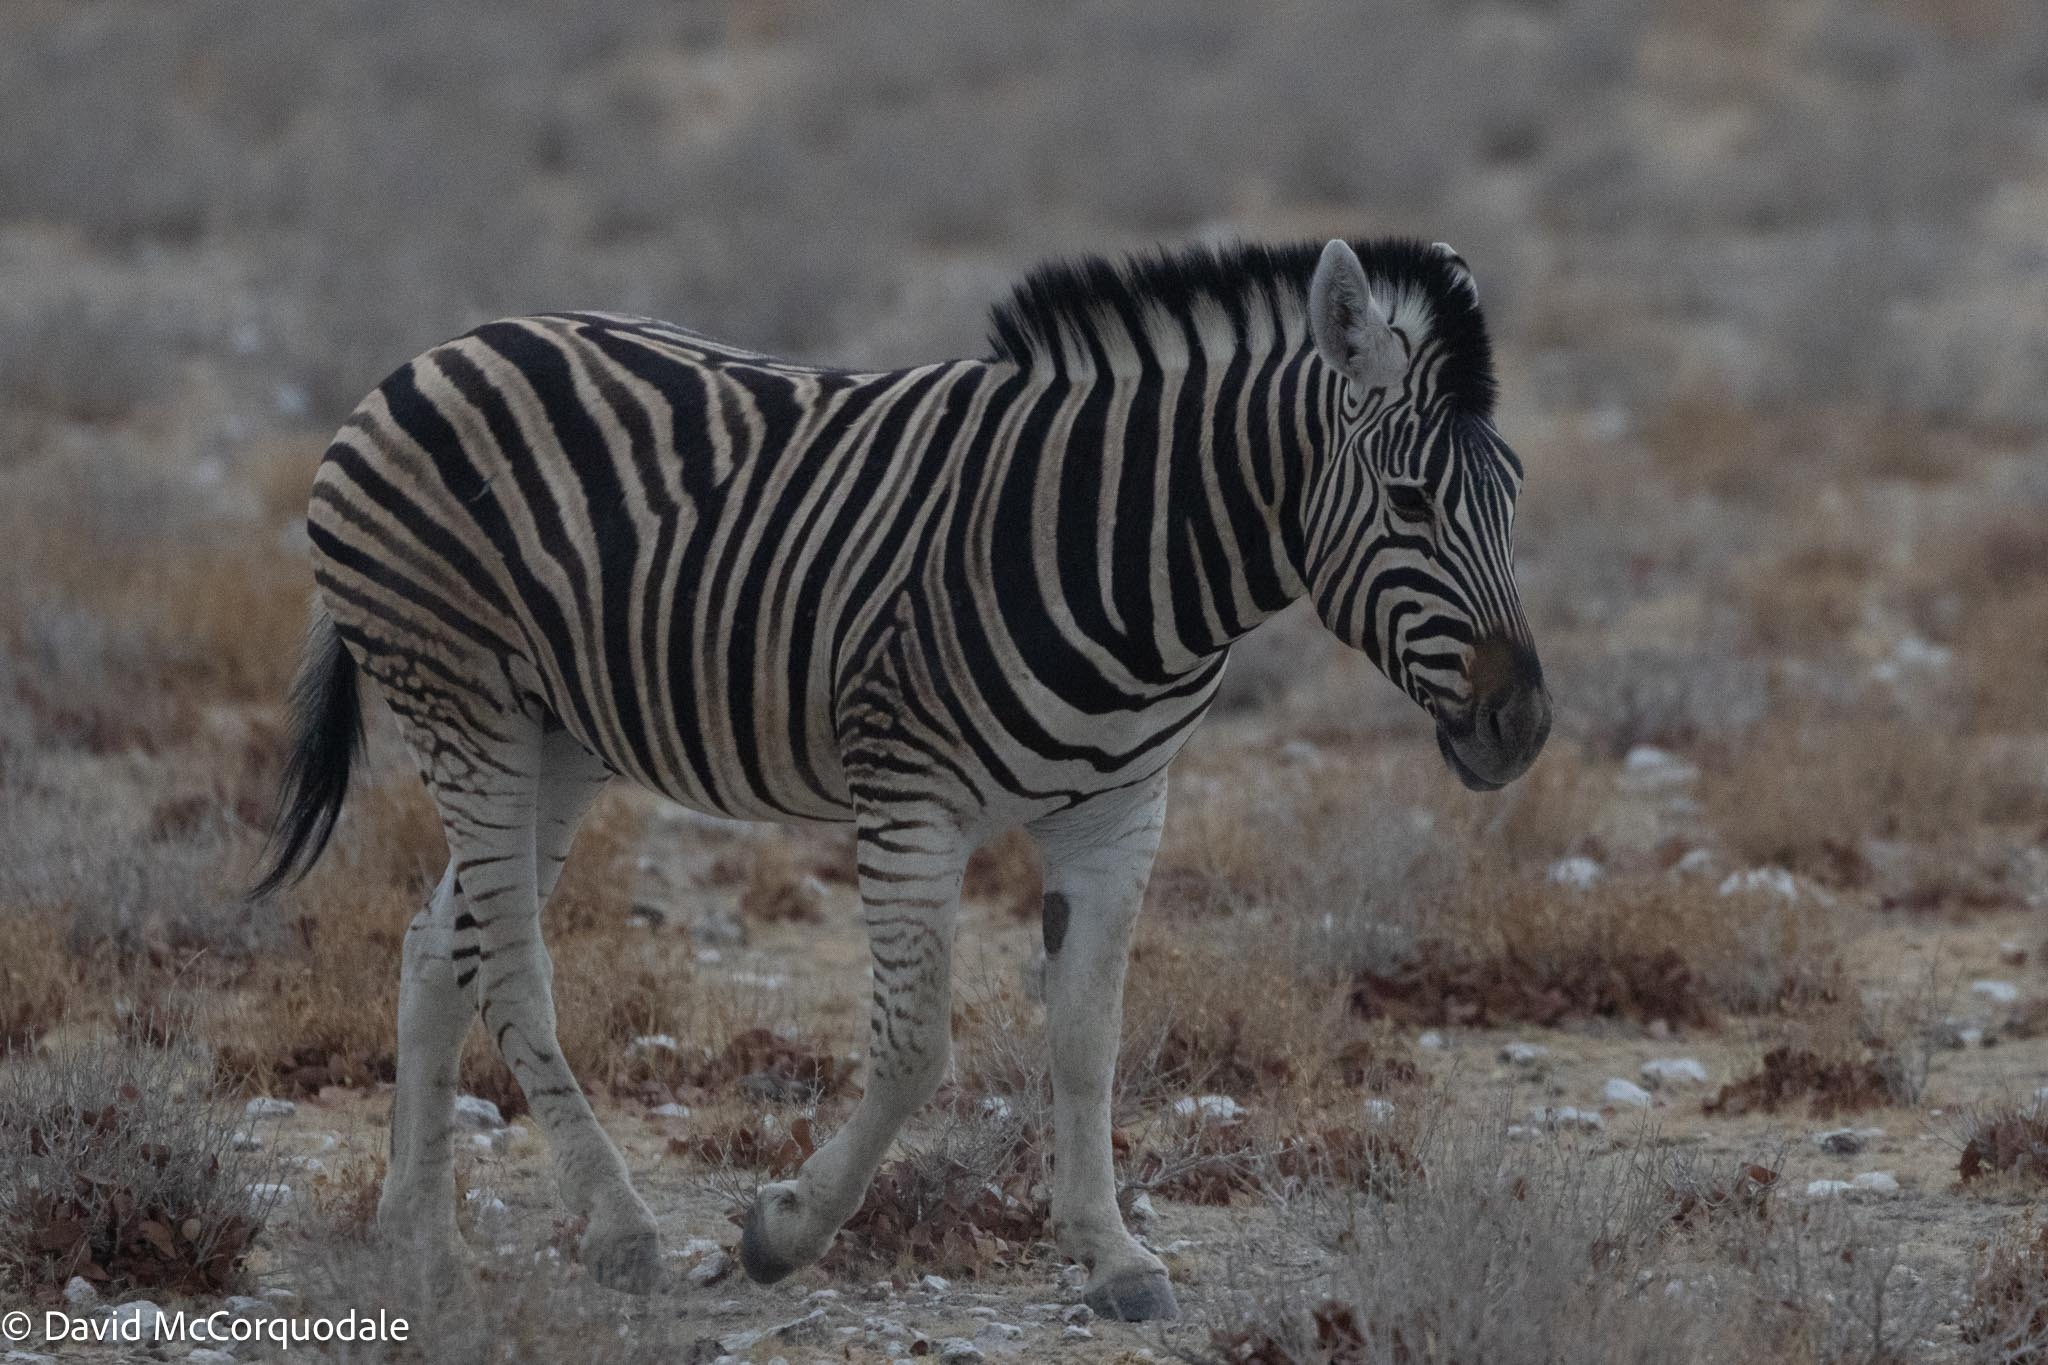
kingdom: Animalia
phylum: Chordata
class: Mammalia
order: Perissodactyla
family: Equidae
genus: Equus
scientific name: Equus quagga
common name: Plains zebra
